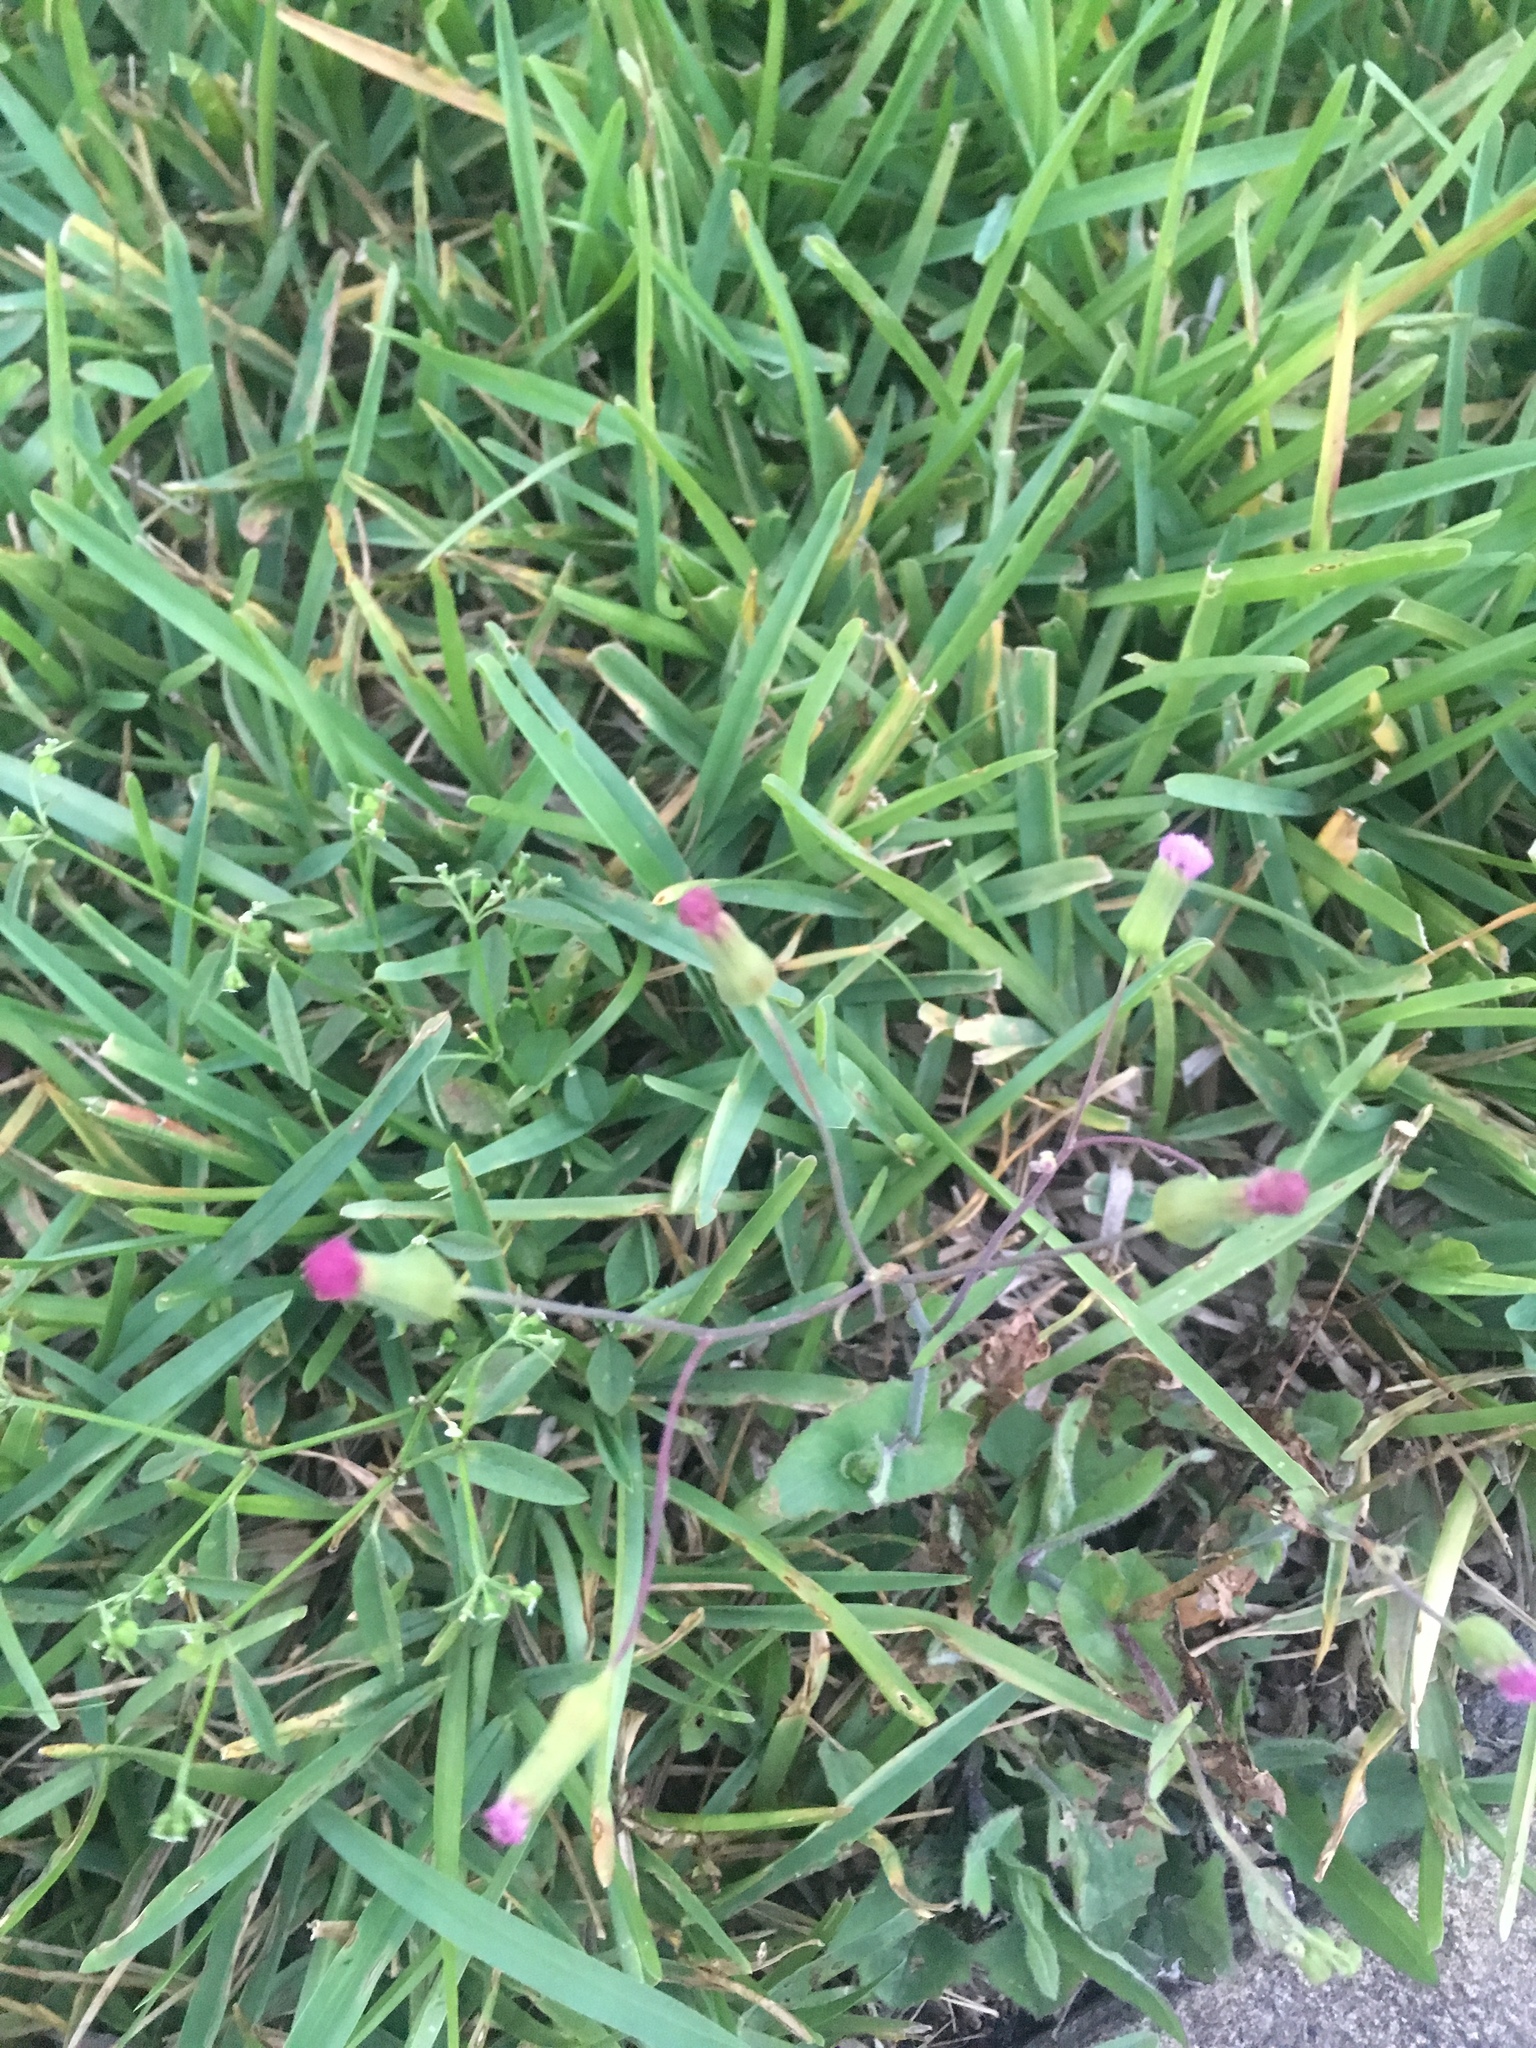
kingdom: Plantae
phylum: Tracheophyta
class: Magnoliopsida
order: Asterales
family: Asteraceae
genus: Emilia
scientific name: Emilia sonchifolia
